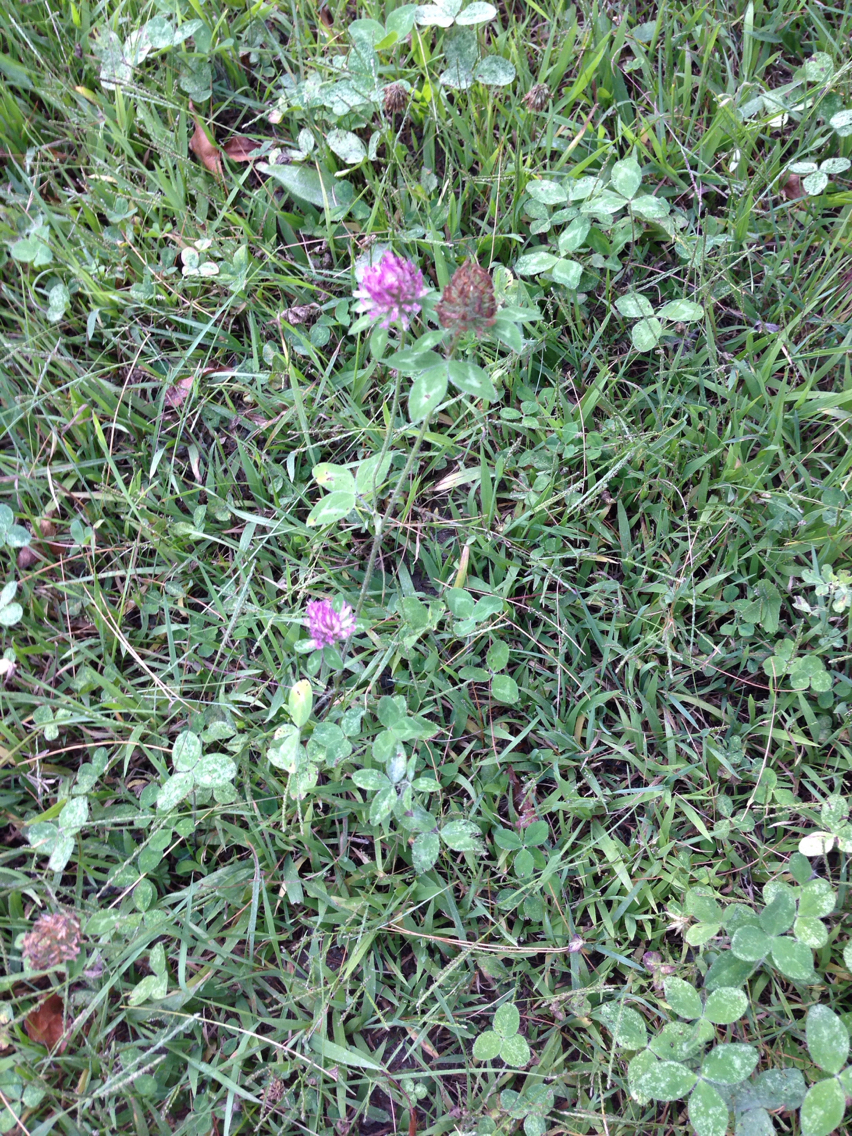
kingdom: Plantae
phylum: Tracheophyta
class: Magnoliopsida
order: Fabales
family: Fabaceae
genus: Trifolium
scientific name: Trifolium pratense
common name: Red clover
